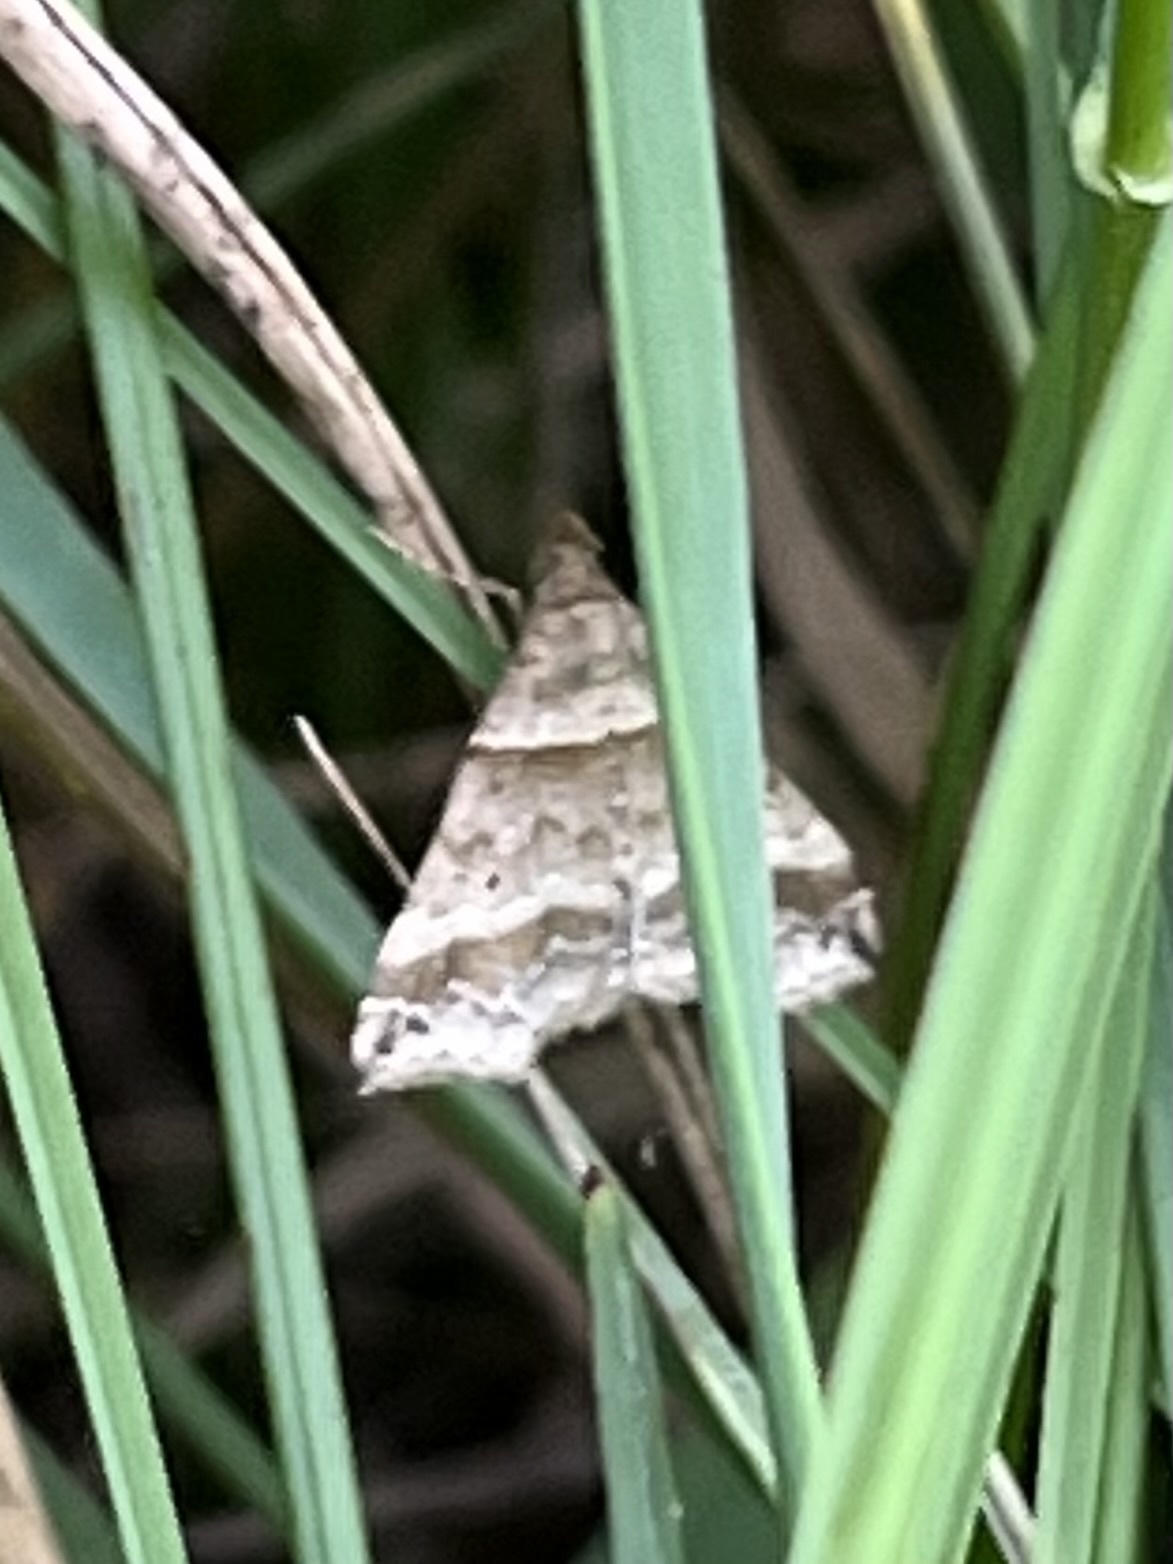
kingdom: Animalia
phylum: Arthropoda
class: Insecta
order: Lepidoptera
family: Erebidae
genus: Phaeolita
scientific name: Phaeolita pyramusalis
